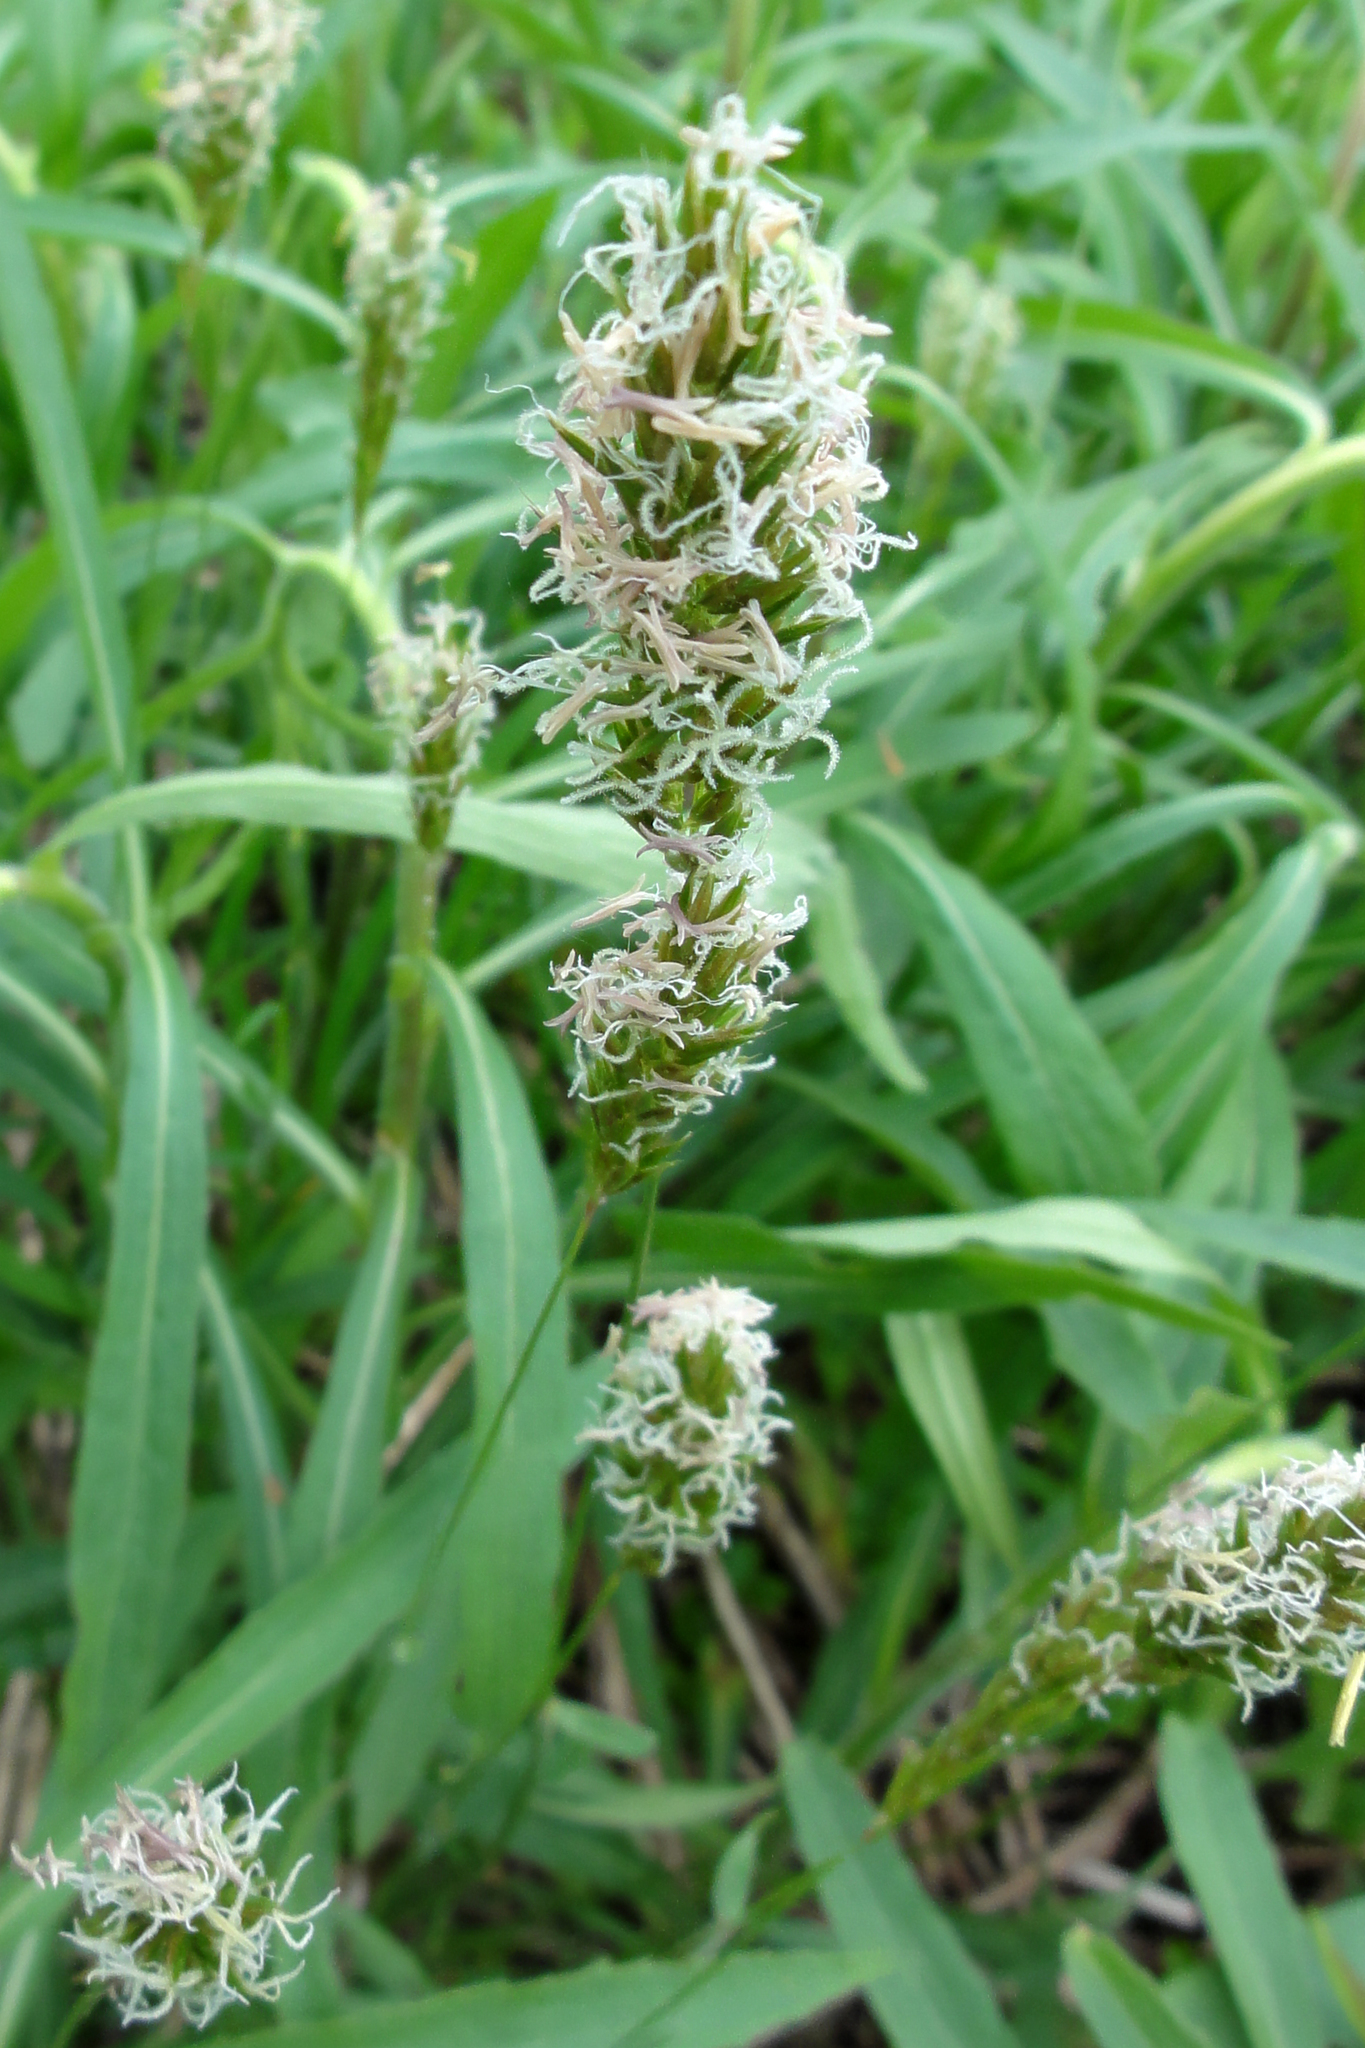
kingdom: Plantae
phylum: Tracheophyta
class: Liliopsida
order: Poales
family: Poaceae
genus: Anthoxanthum
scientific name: Anthoxanthum odoratum
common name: Sweet vernalgrass
